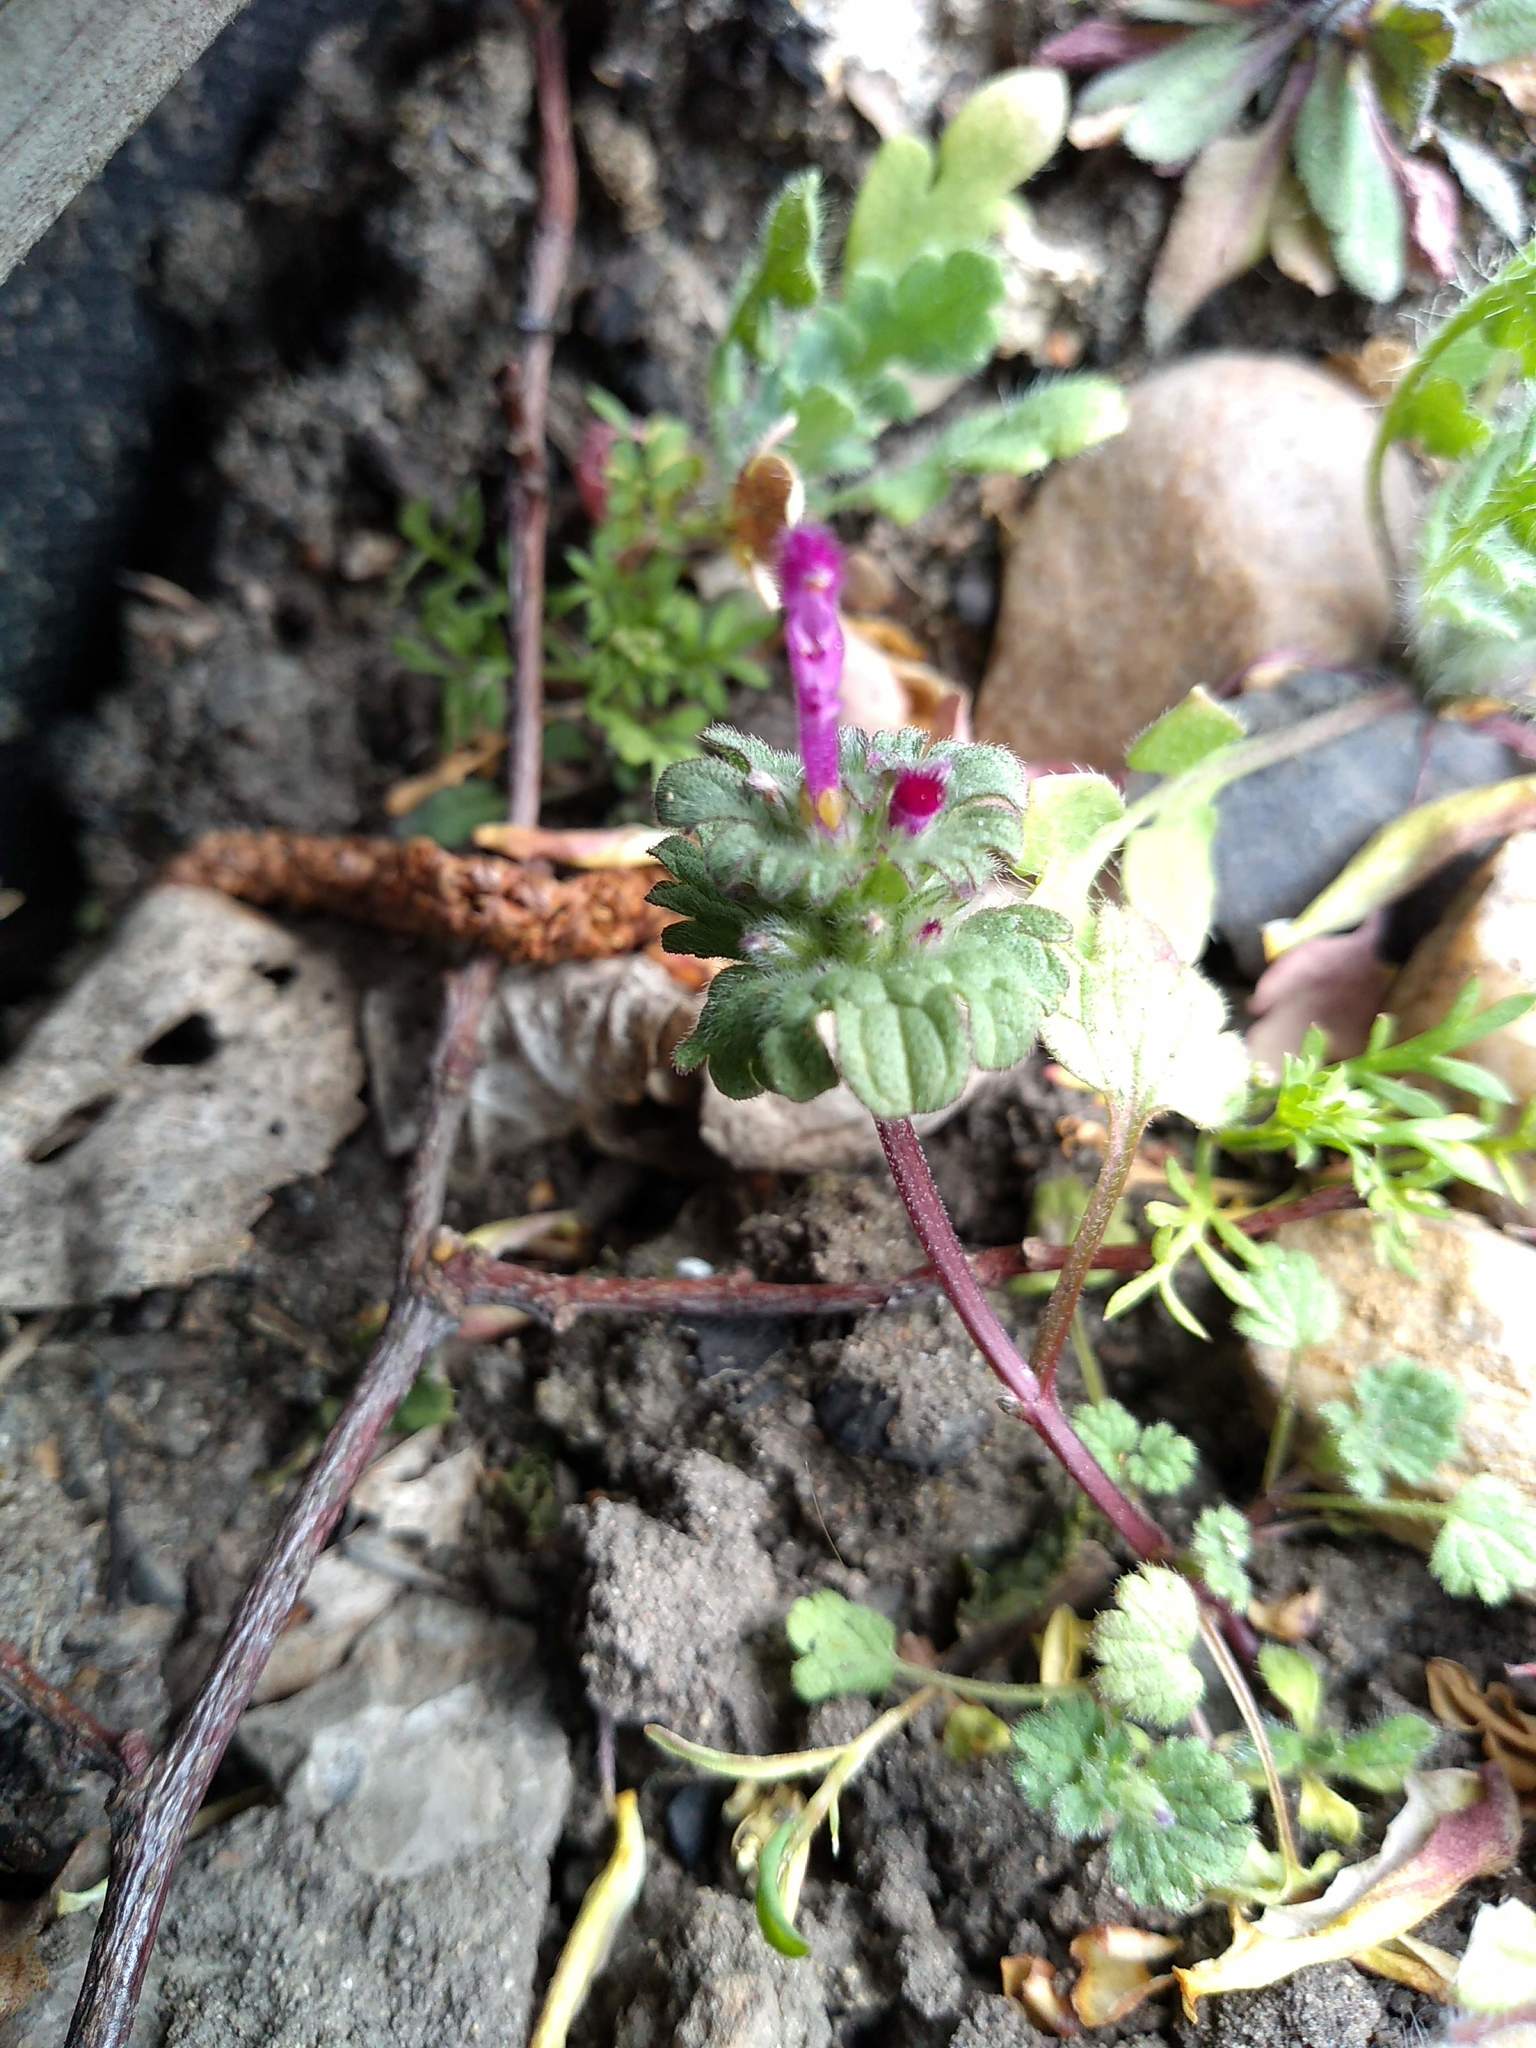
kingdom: Plantae
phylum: Tracheophyta
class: Magnoliopsida
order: Lamiales
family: Lamiaceae
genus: Lamium
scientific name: Lamium amplexicaule
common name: Henbit dead-nettle
